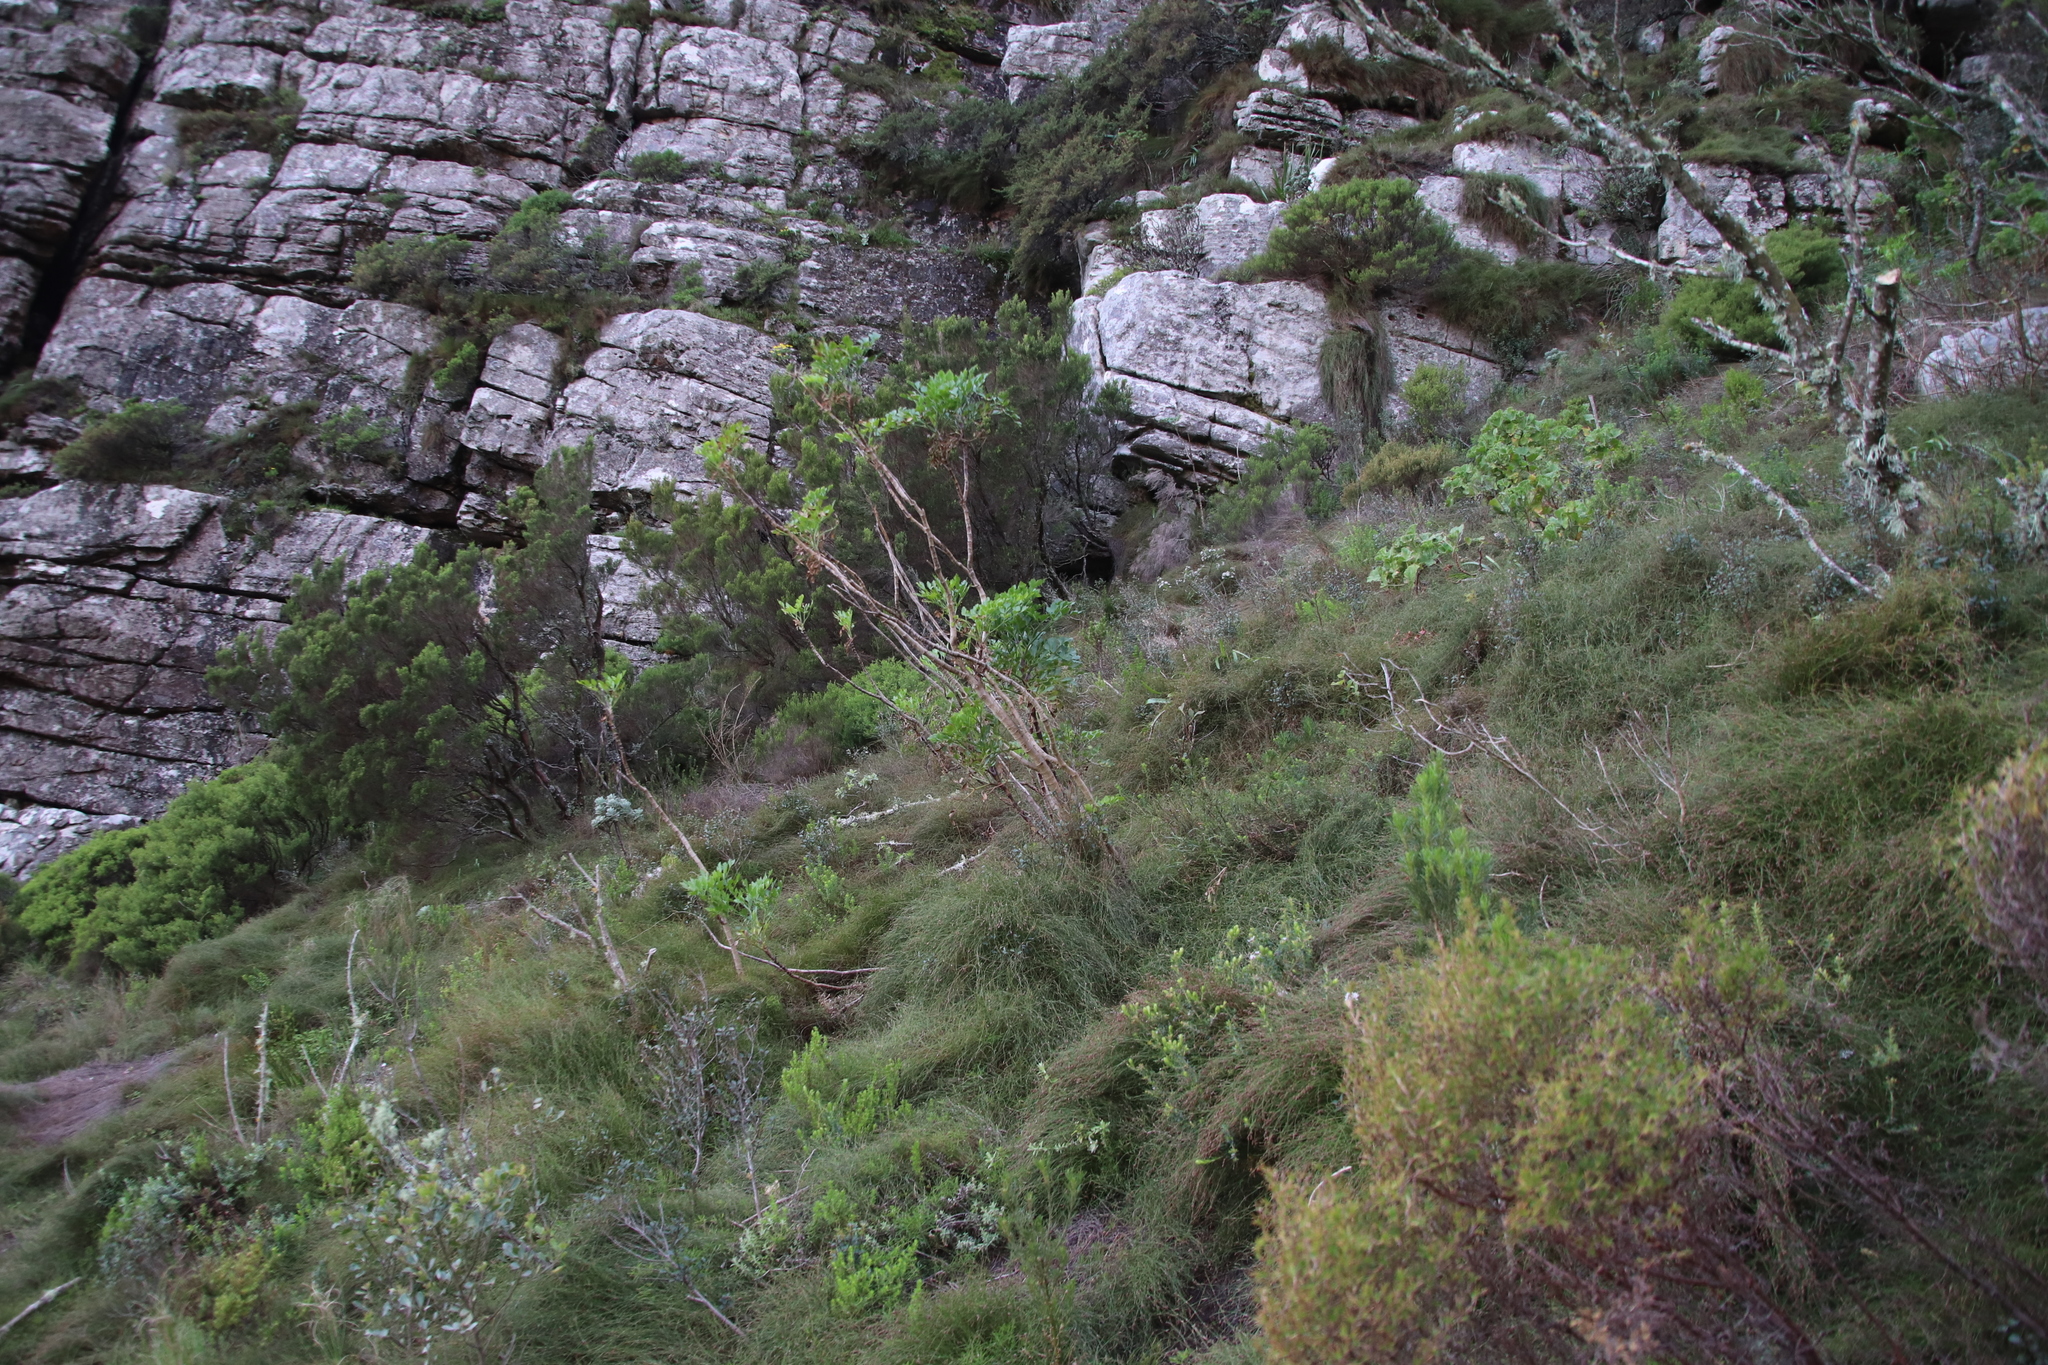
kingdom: Plantae
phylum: Tracheophyta
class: Magnoliopsida
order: Apiales
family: Apiaceae
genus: Notobubon
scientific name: Notobubon galbanum
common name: Blisterbush
